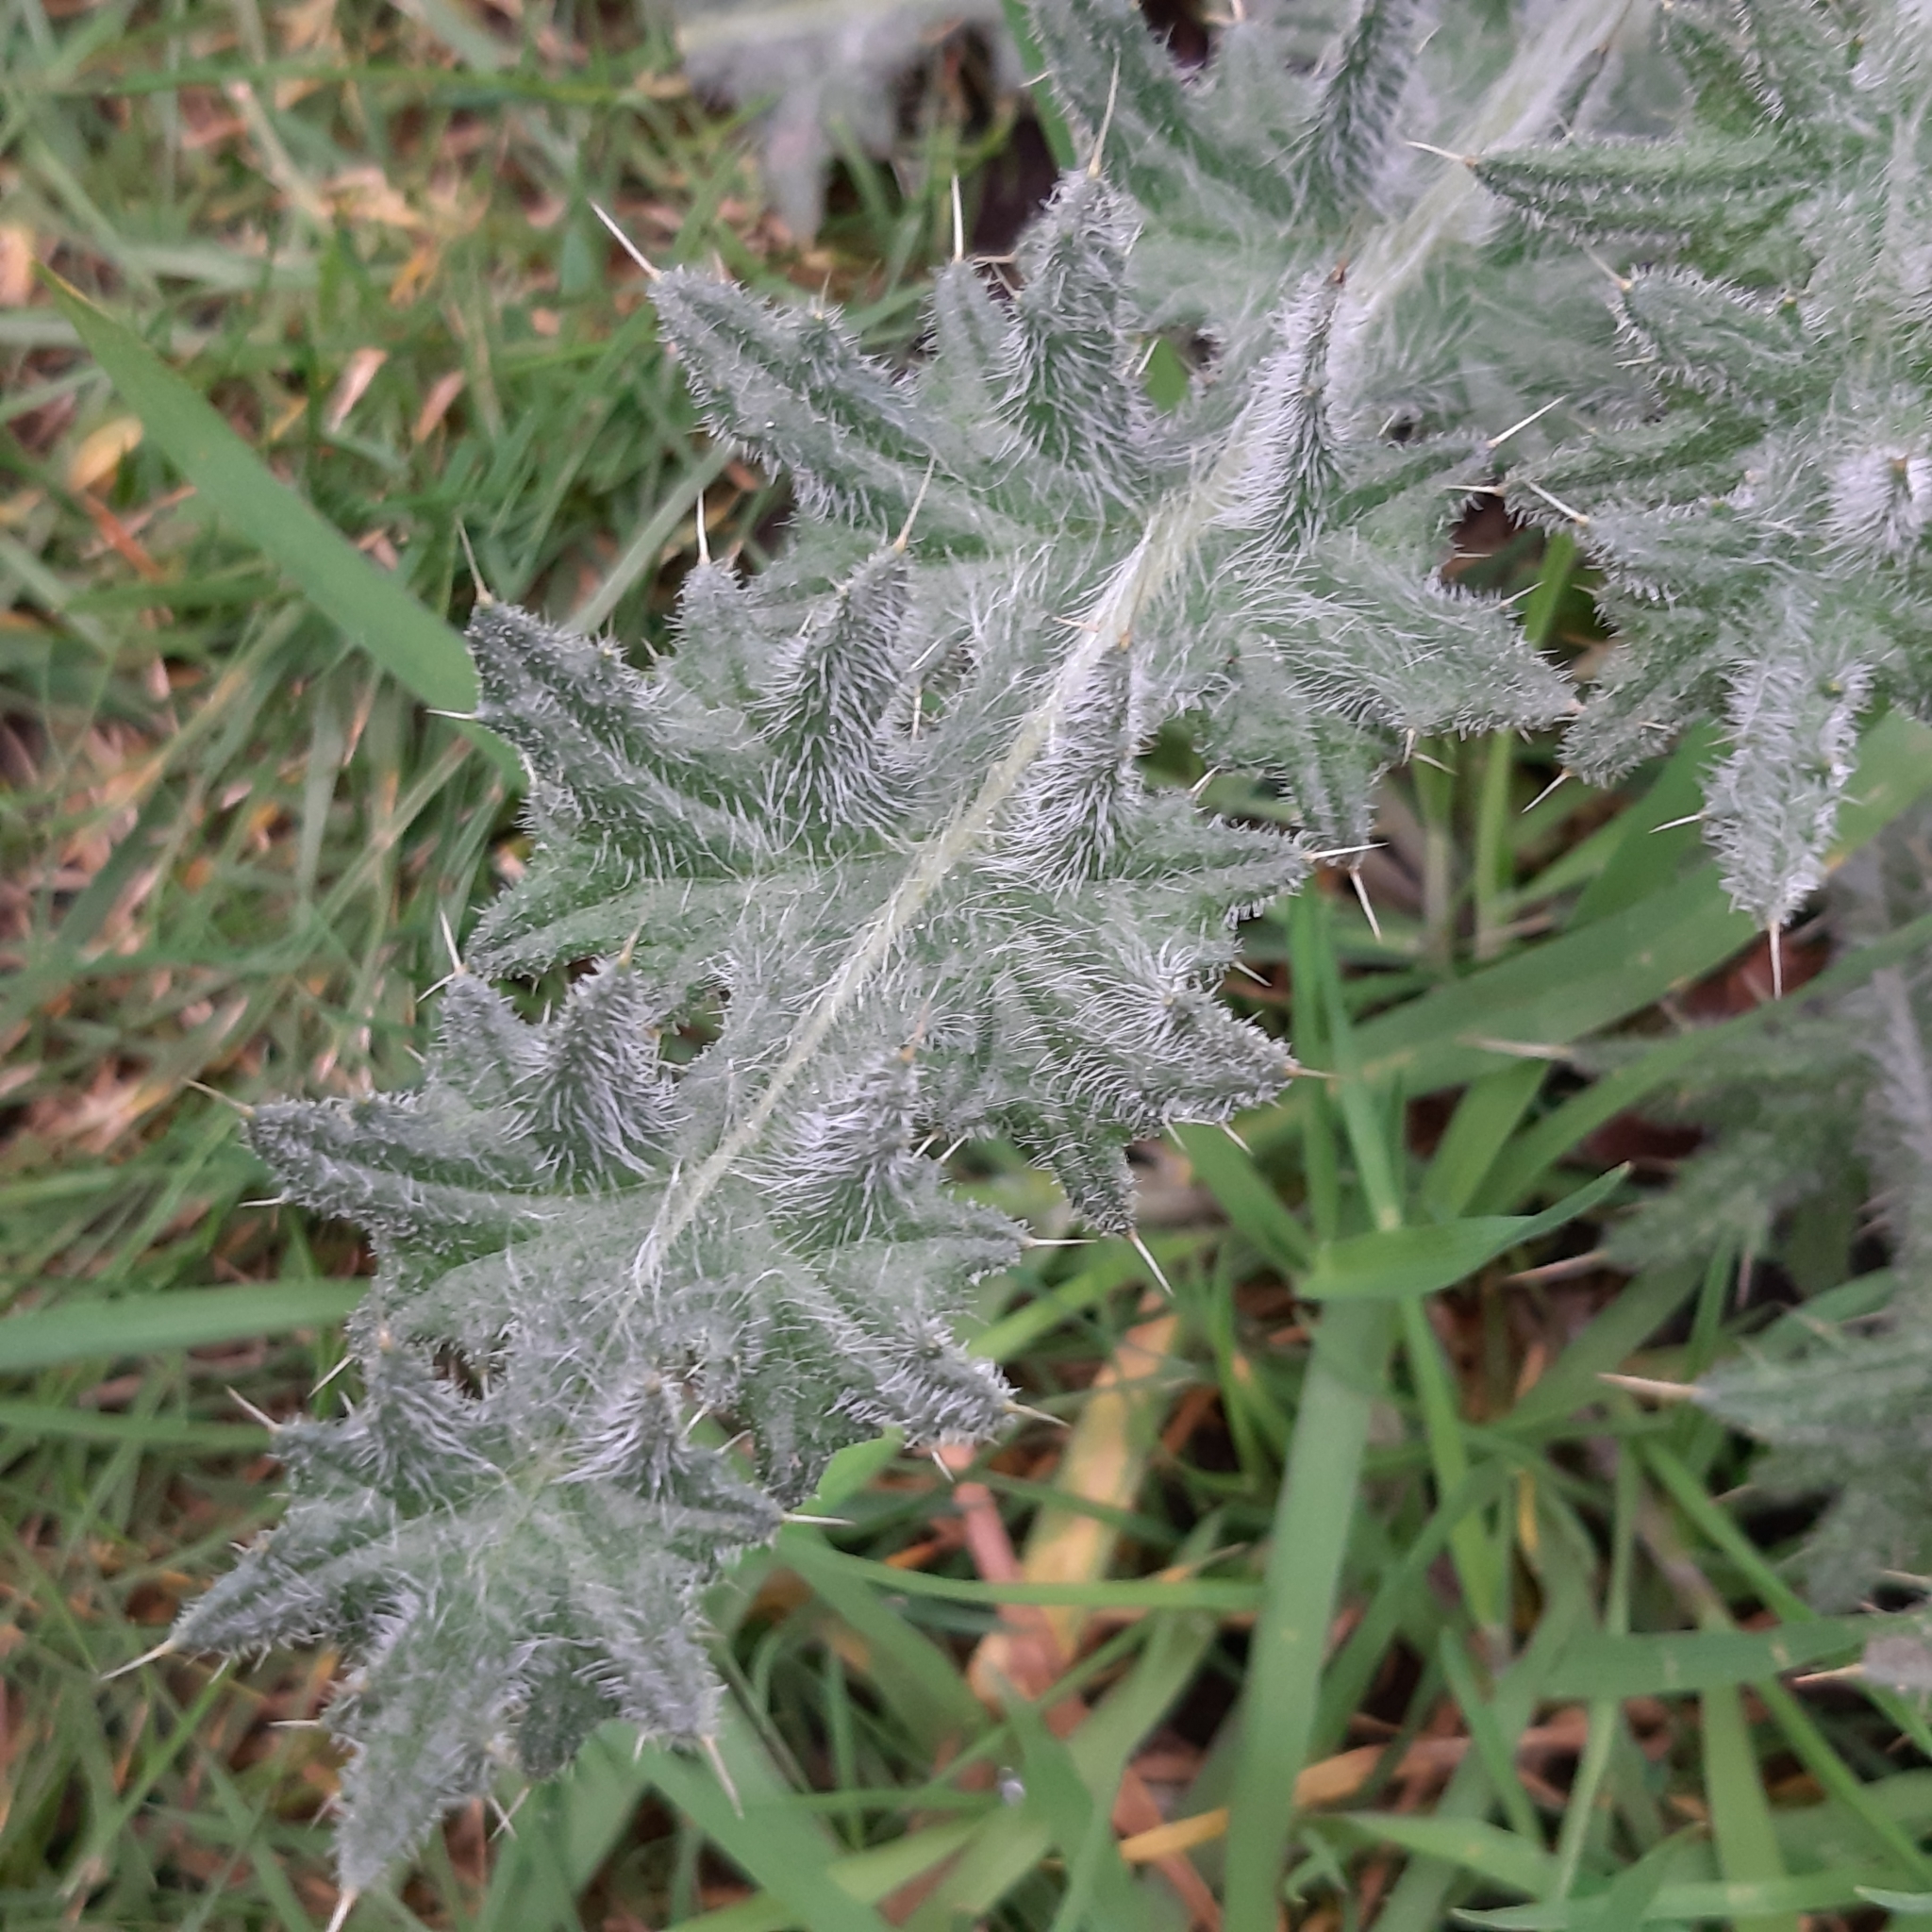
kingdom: Plantae
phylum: Tracheophyta
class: Magnoliopsida
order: Asterales
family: Asteraceae
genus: Cirsium
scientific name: Cirsium vulgare
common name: Bull thistle
